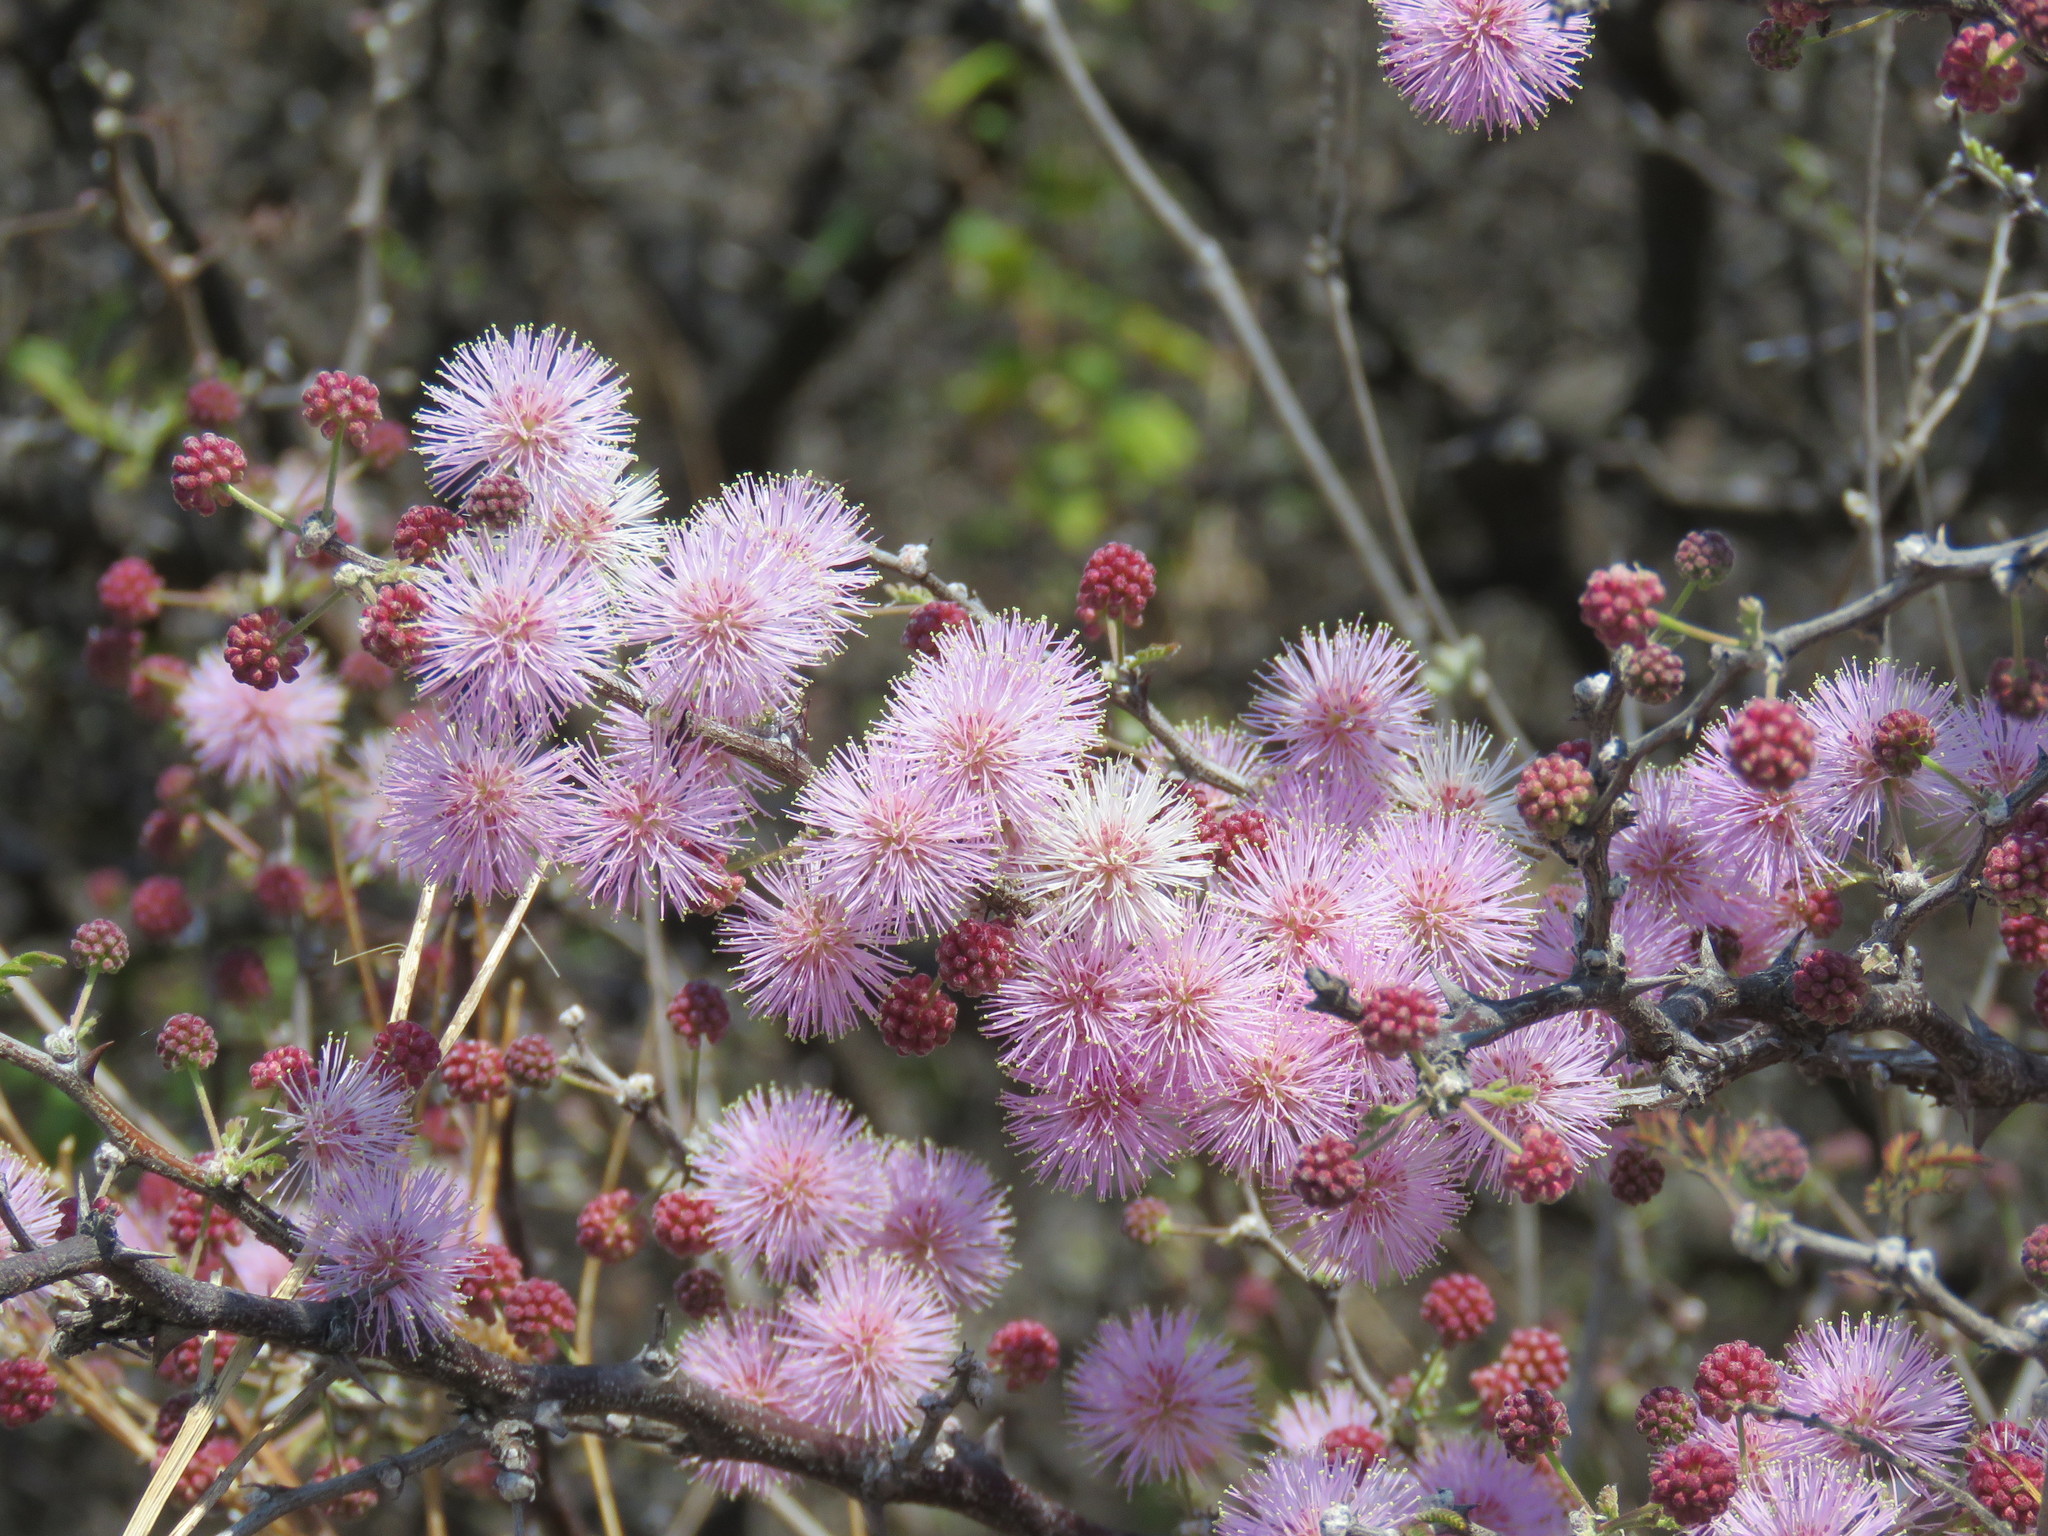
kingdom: Plantae
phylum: Tracheophyta
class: Magnoliopsida
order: Fabales
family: Fabaceae
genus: Mimosa
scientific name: Mimosa depauperata
